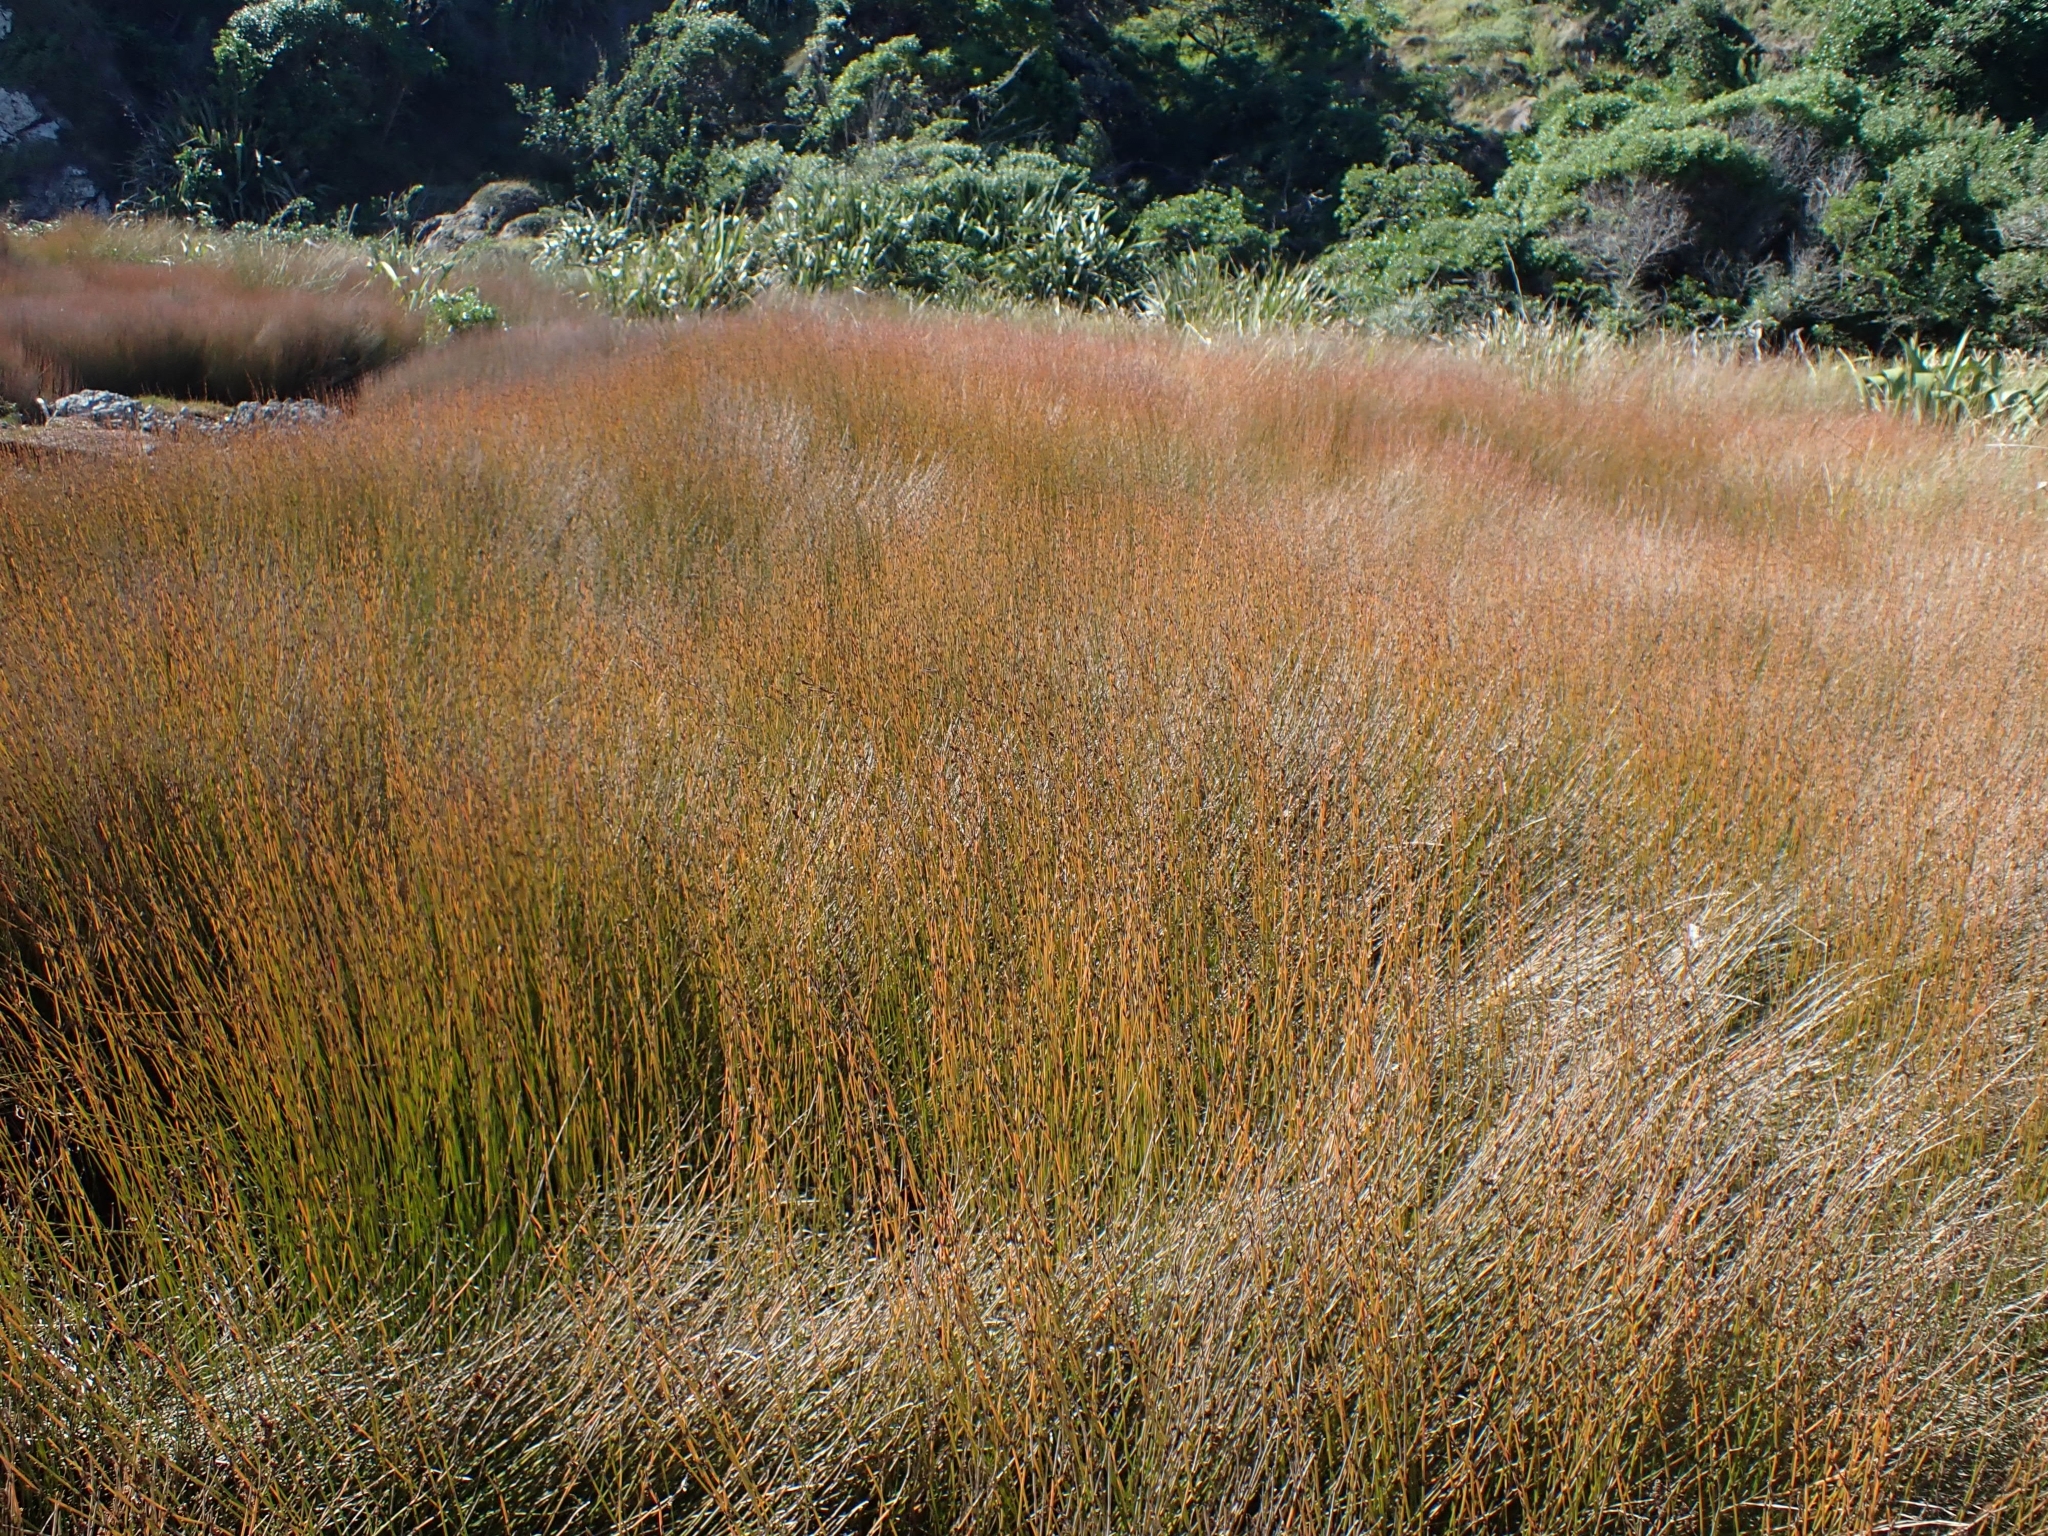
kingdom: Plantae
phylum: Tracheophyta
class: Liliopsida
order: Poales
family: Restionaceae
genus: Apodasmia
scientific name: Apodasmia similis
